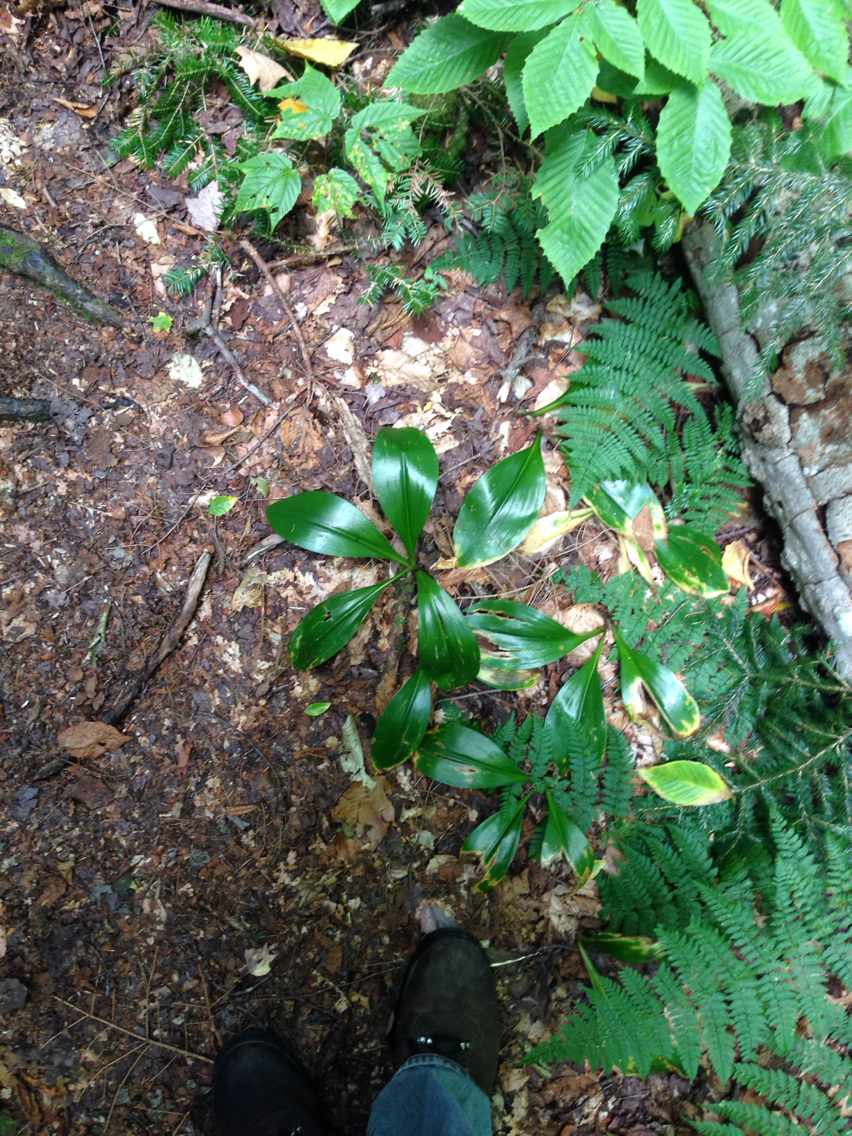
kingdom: Plantae
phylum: Tracheophyta
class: Liliopsida
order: Liliales
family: Liliaceae
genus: Clintonia
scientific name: Clintonia borealis
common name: Yellow clintonia
